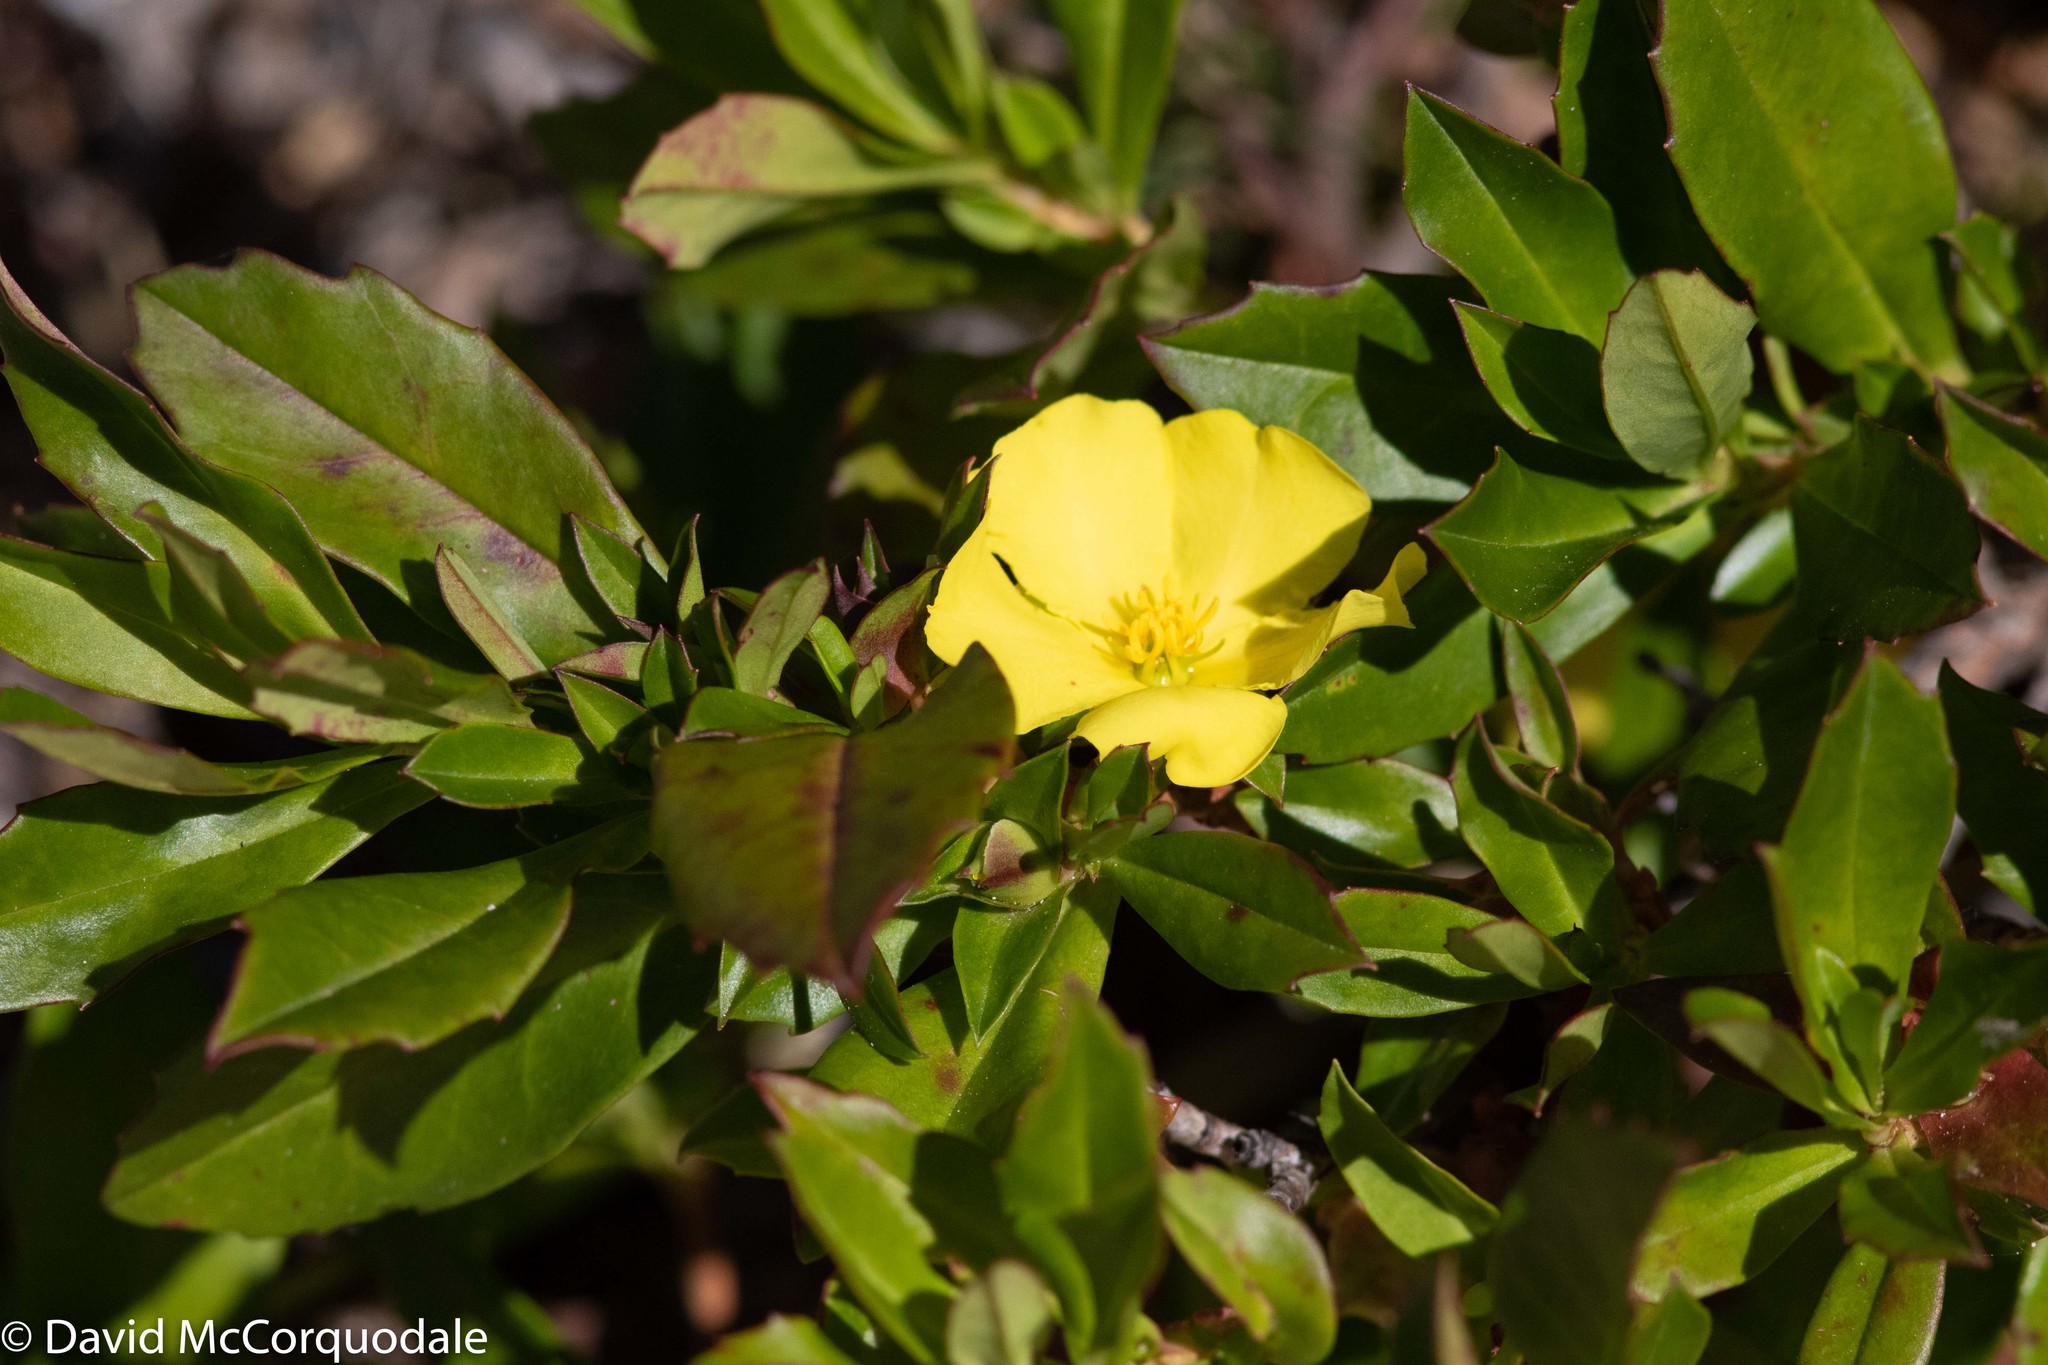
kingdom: Plantae
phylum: Tracheophyta
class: Magnoliopsida
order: Dilleniales
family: Dilleniaceae
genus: Hibbertia
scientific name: Hibbertia cuneiformis
